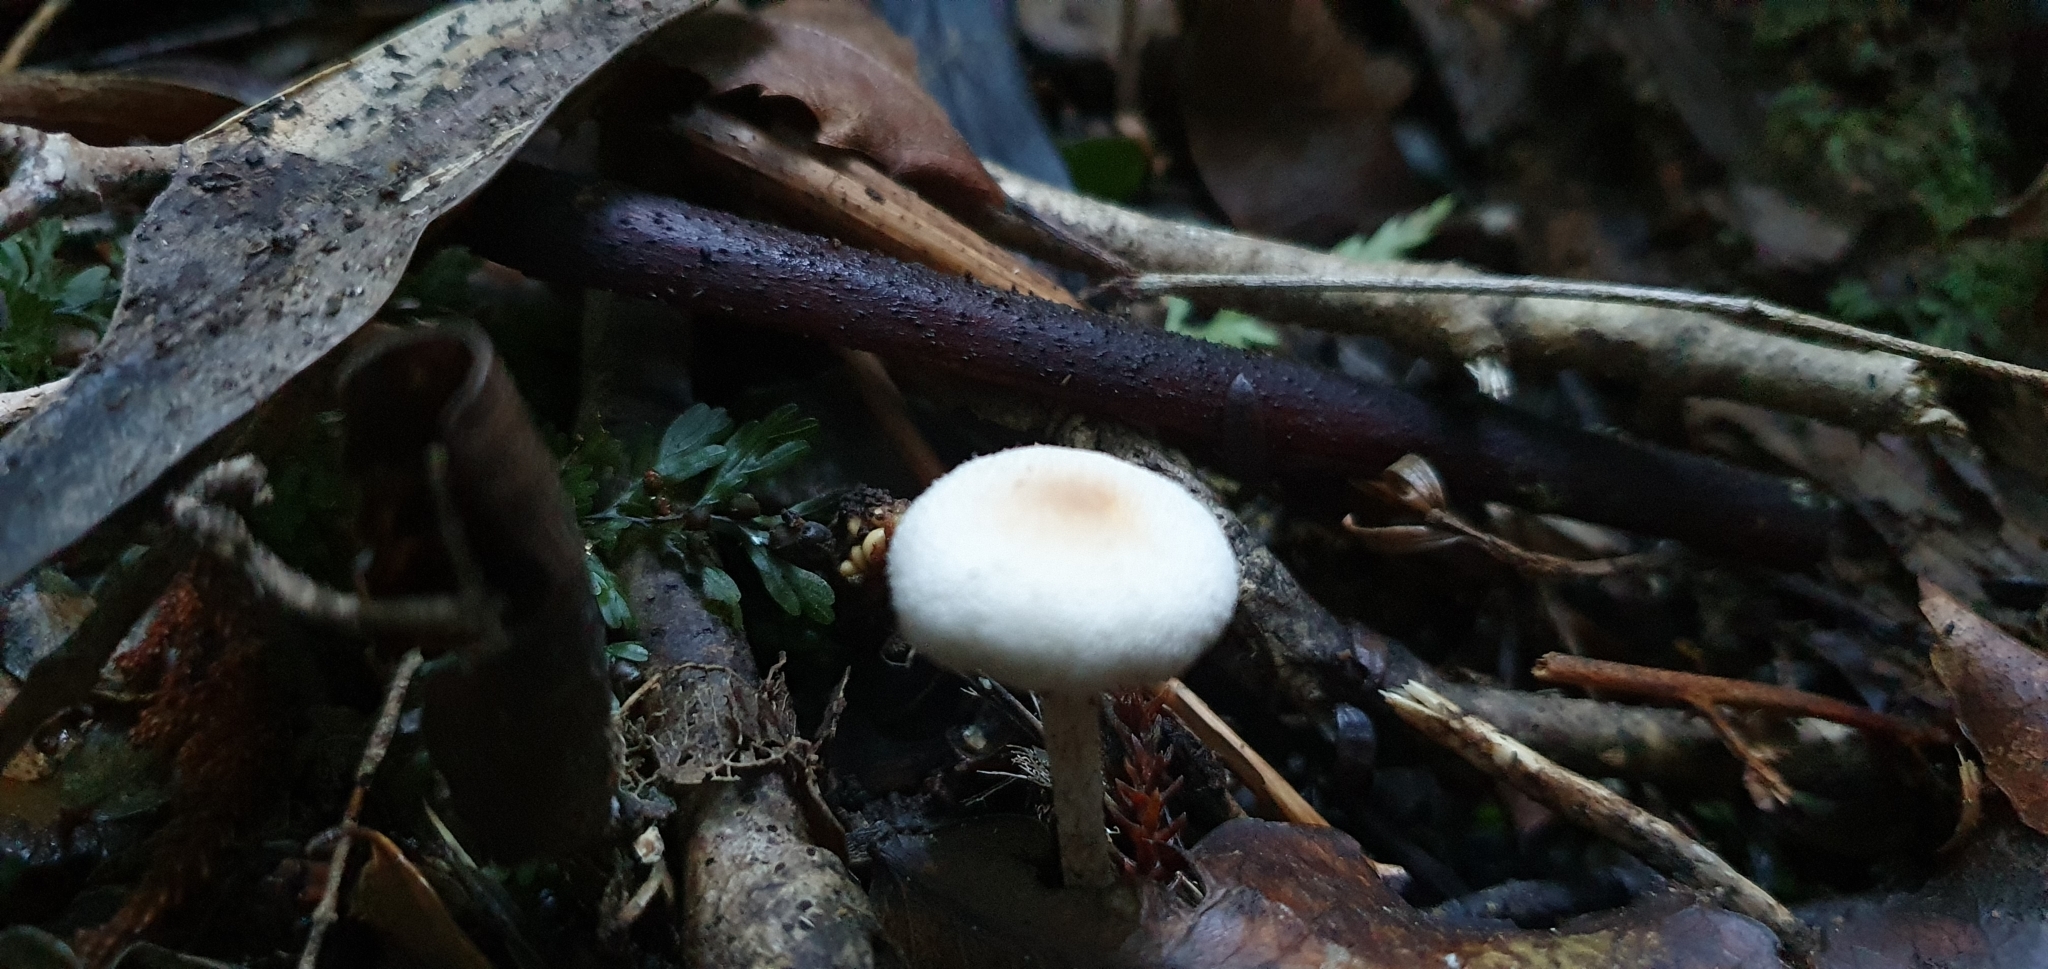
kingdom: Fungi
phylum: Basidiomycota
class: Agaricomycetes
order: Agaricales
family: Bolbitiaceae
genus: Tympanella
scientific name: Tympanella galanthina
